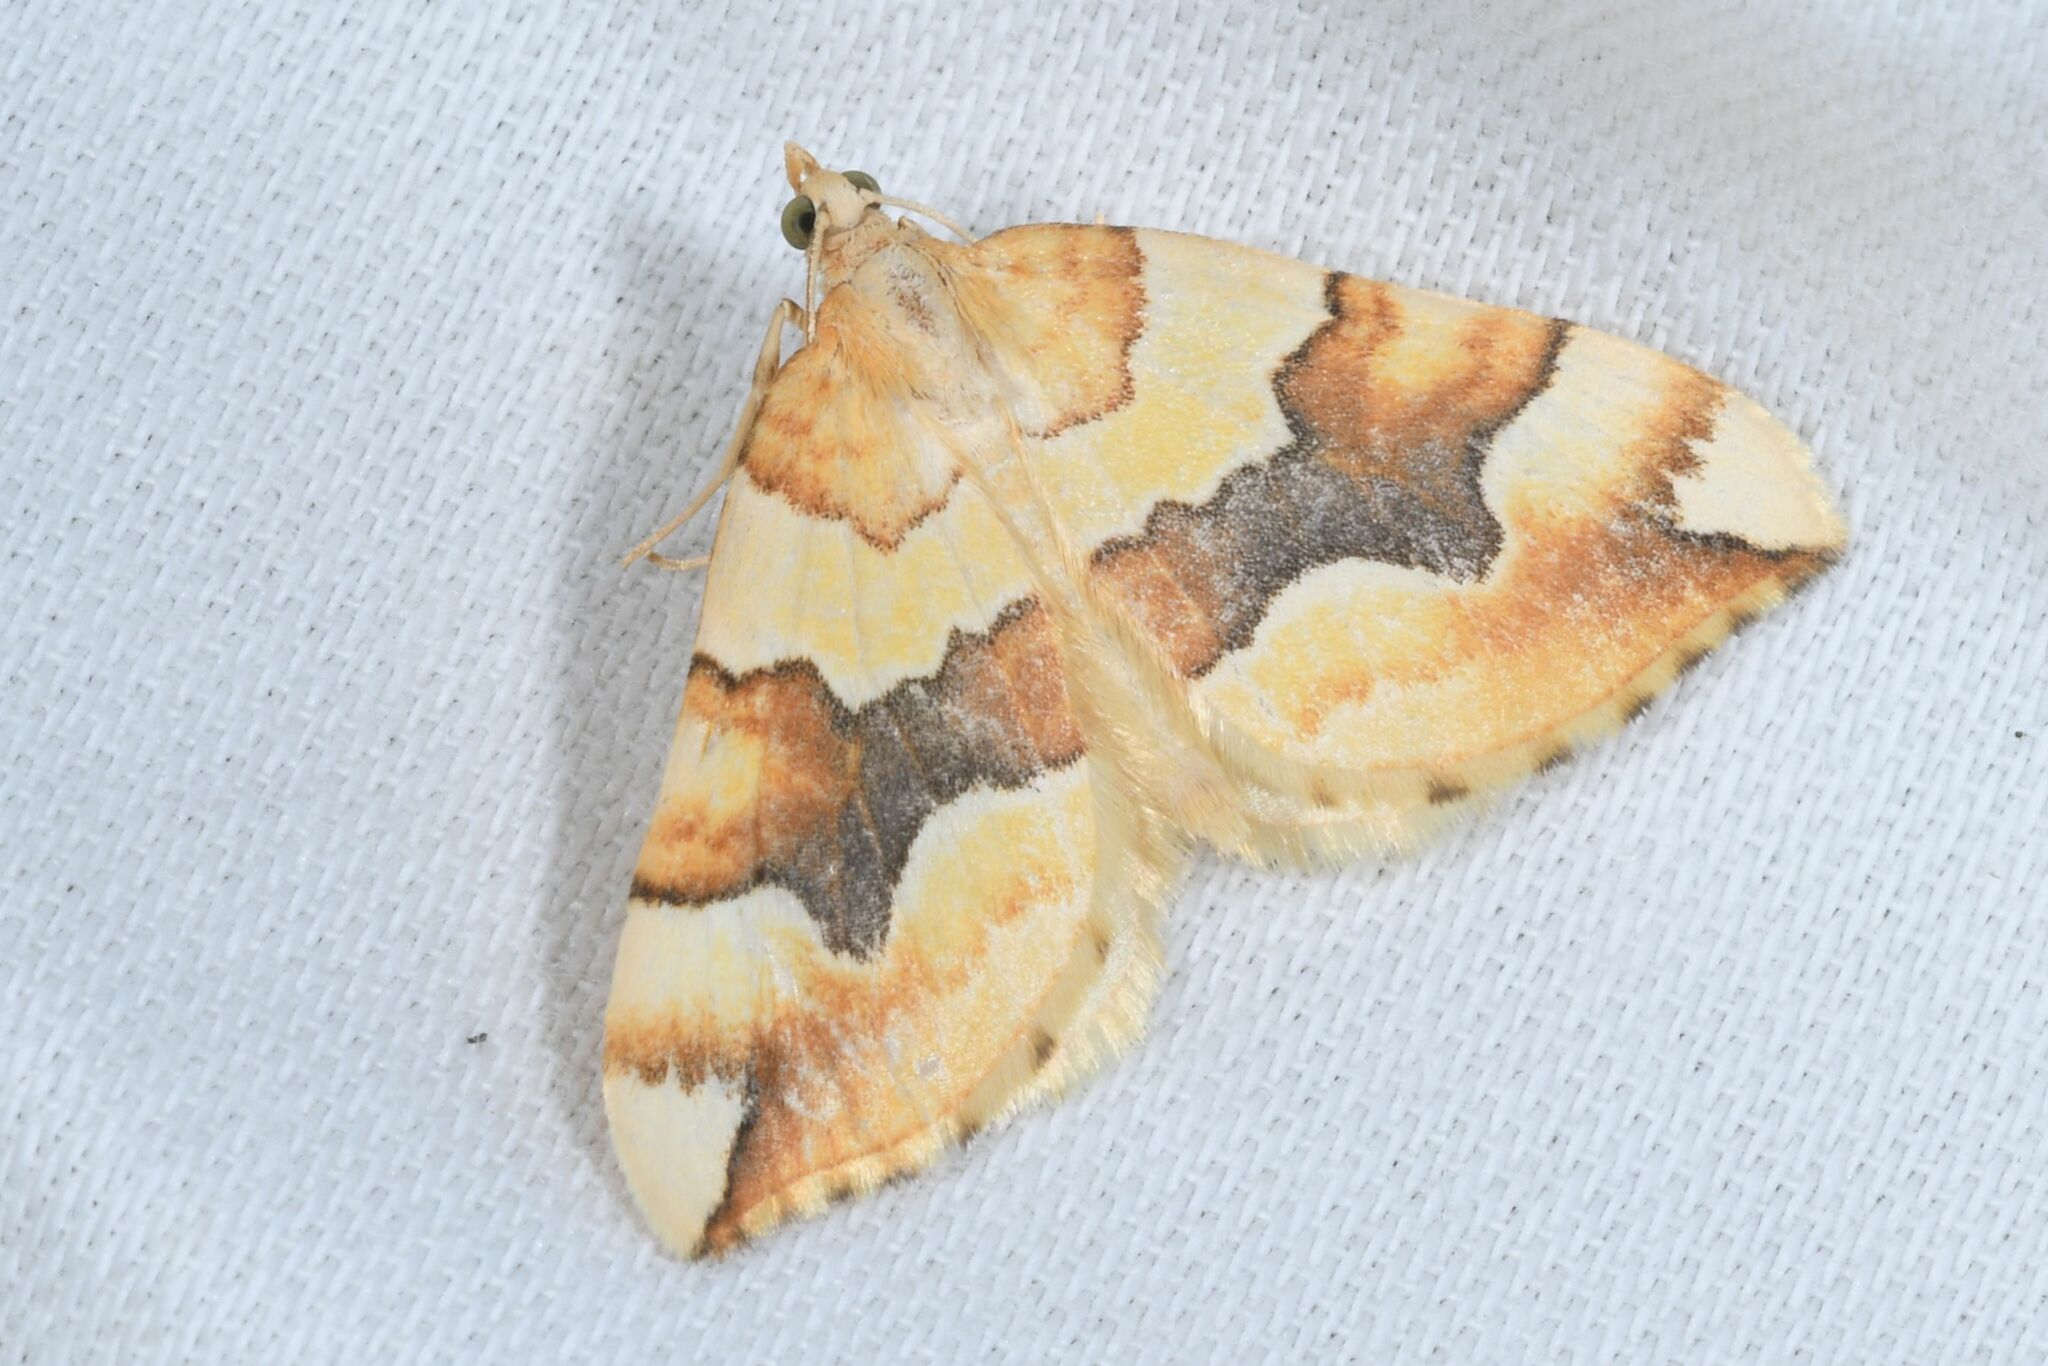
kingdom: Animalia
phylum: Arthropoda
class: Insecta
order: Lepidoptera
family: Geometridae
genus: Cidaria
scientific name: Cidaria fulvata
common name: Barred yellow
